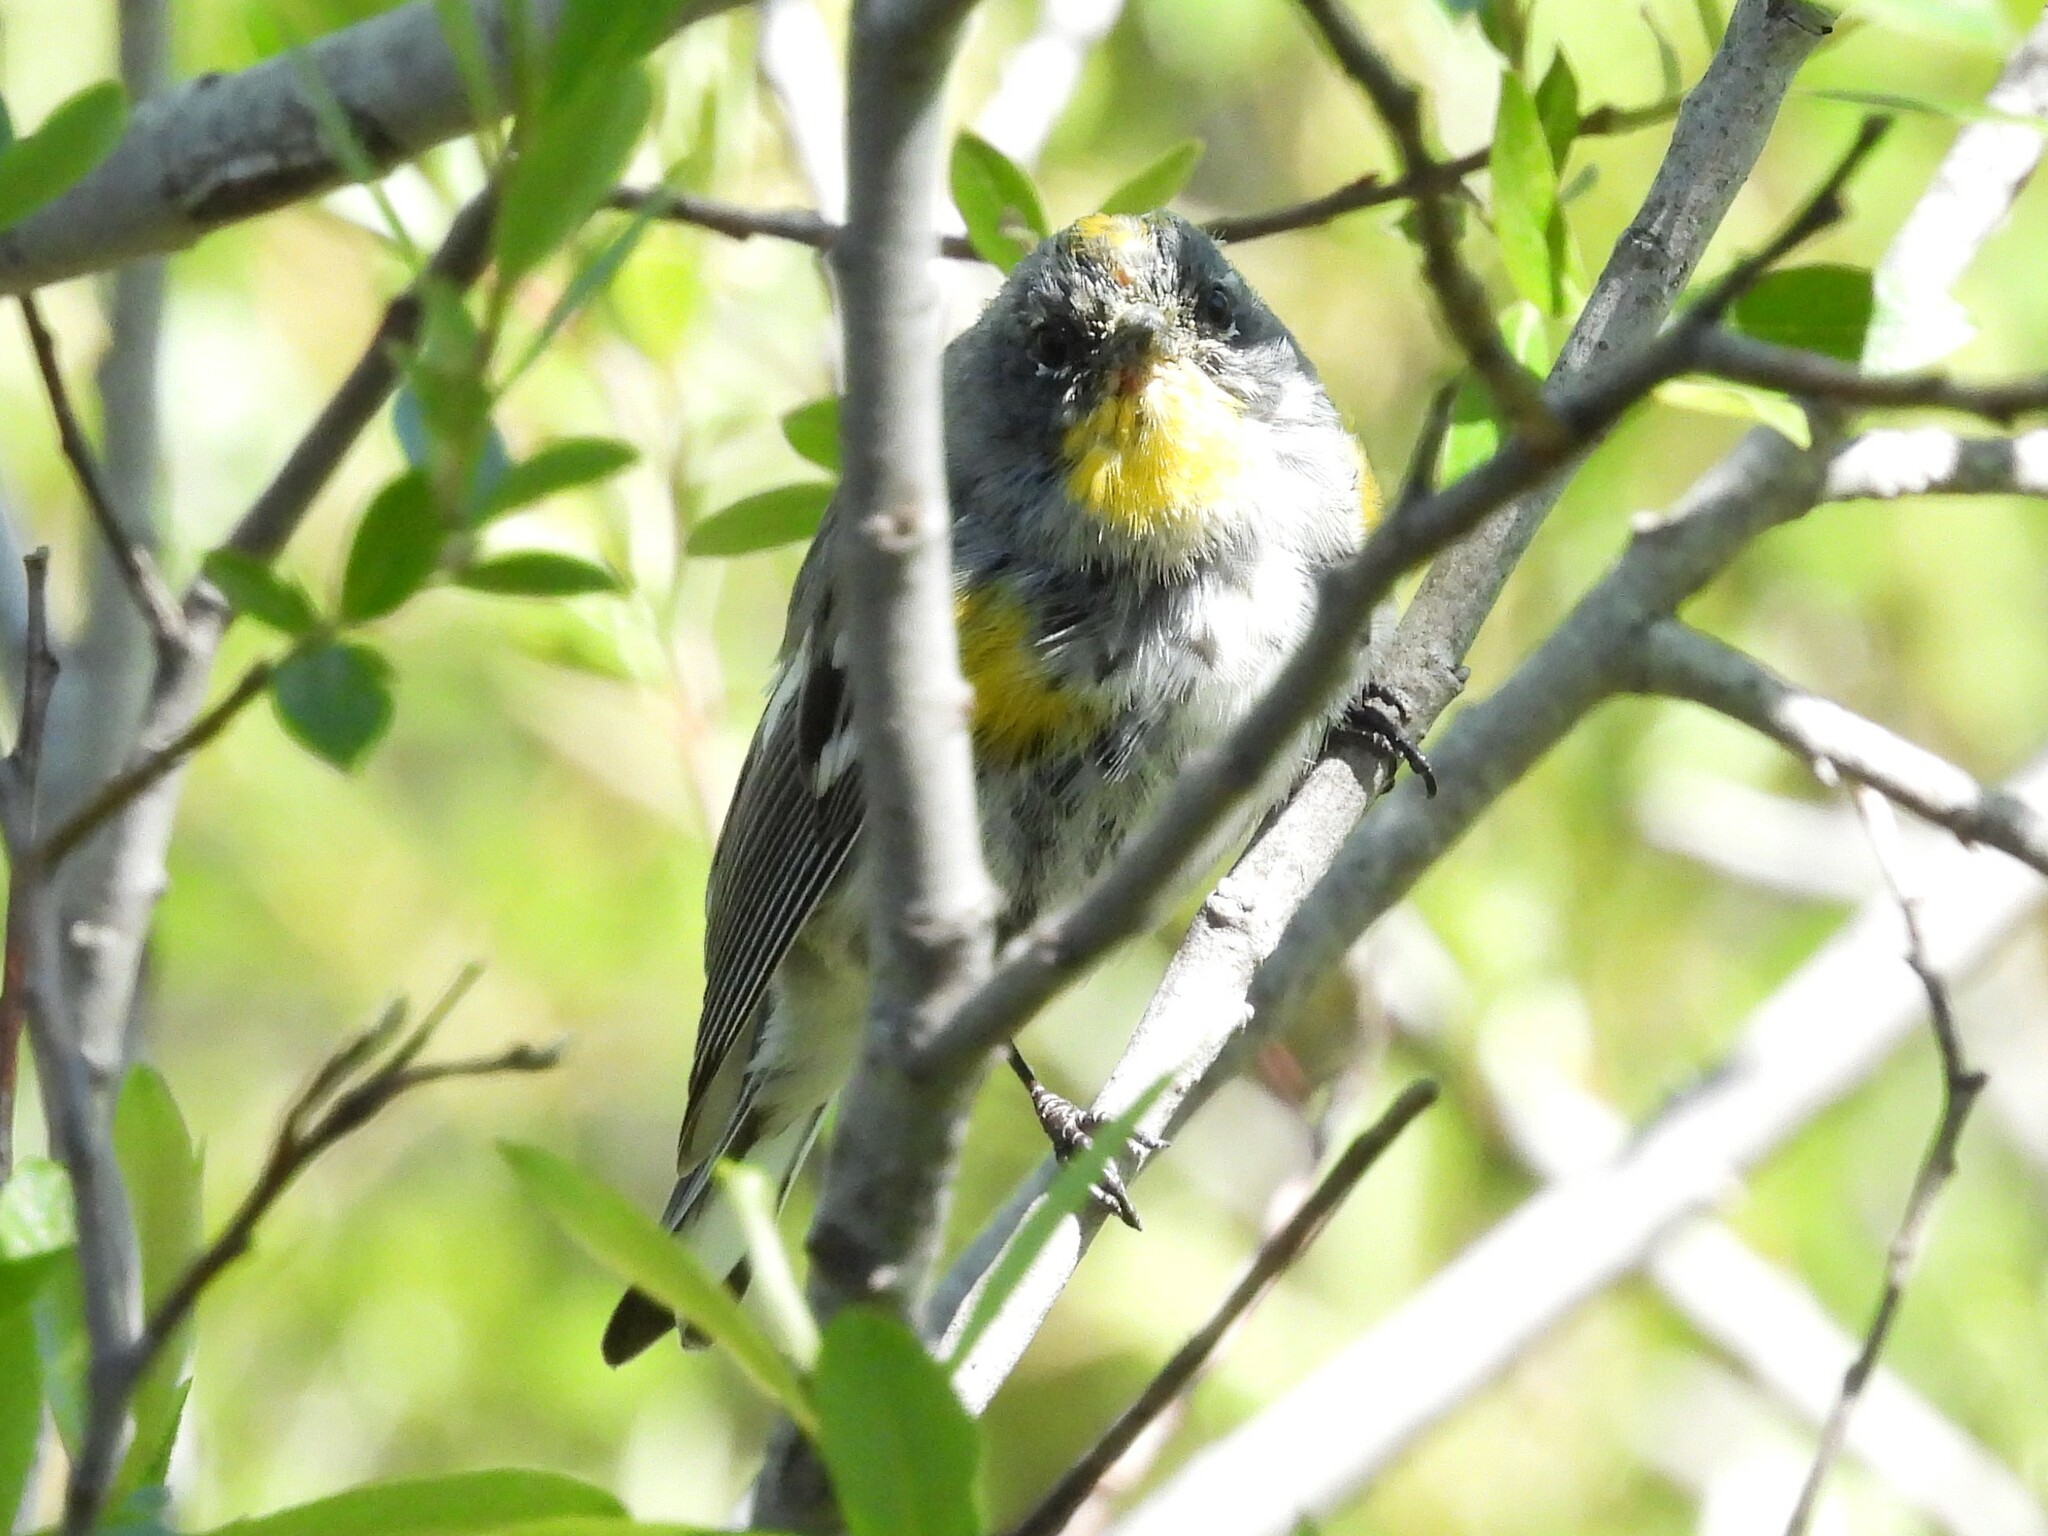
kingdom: Animalia
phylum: Chordata
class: Aves
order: Passeriformes
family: Parulidae
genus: Setophaga
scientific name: Setophaga coronata
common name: Myrtle warbler
